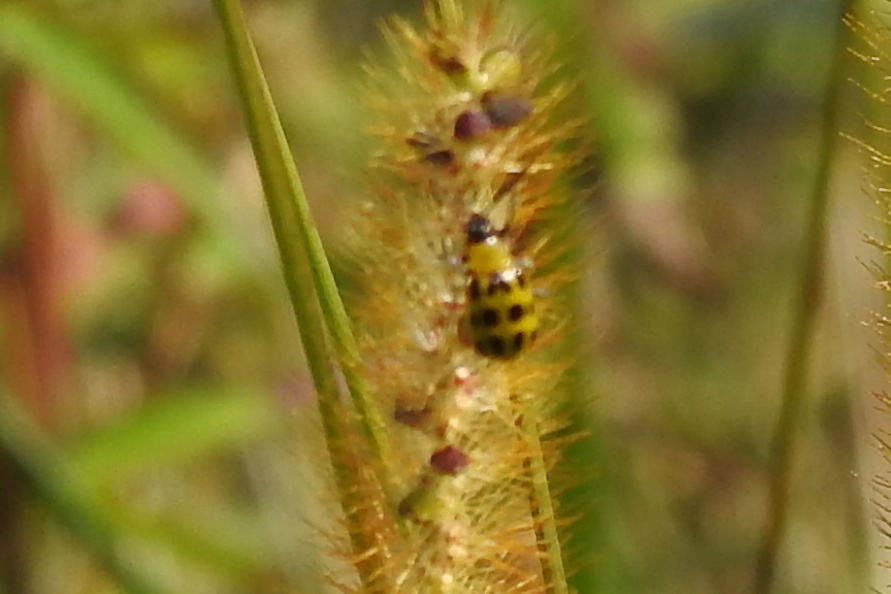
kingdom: Animalia
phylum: Arthropoda
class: Insecta
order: Coleoptera
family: Chrysomelidae
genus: Diabrotica
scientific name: Diabrotica undecimpunctata
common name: Spotted cucumber beetle
